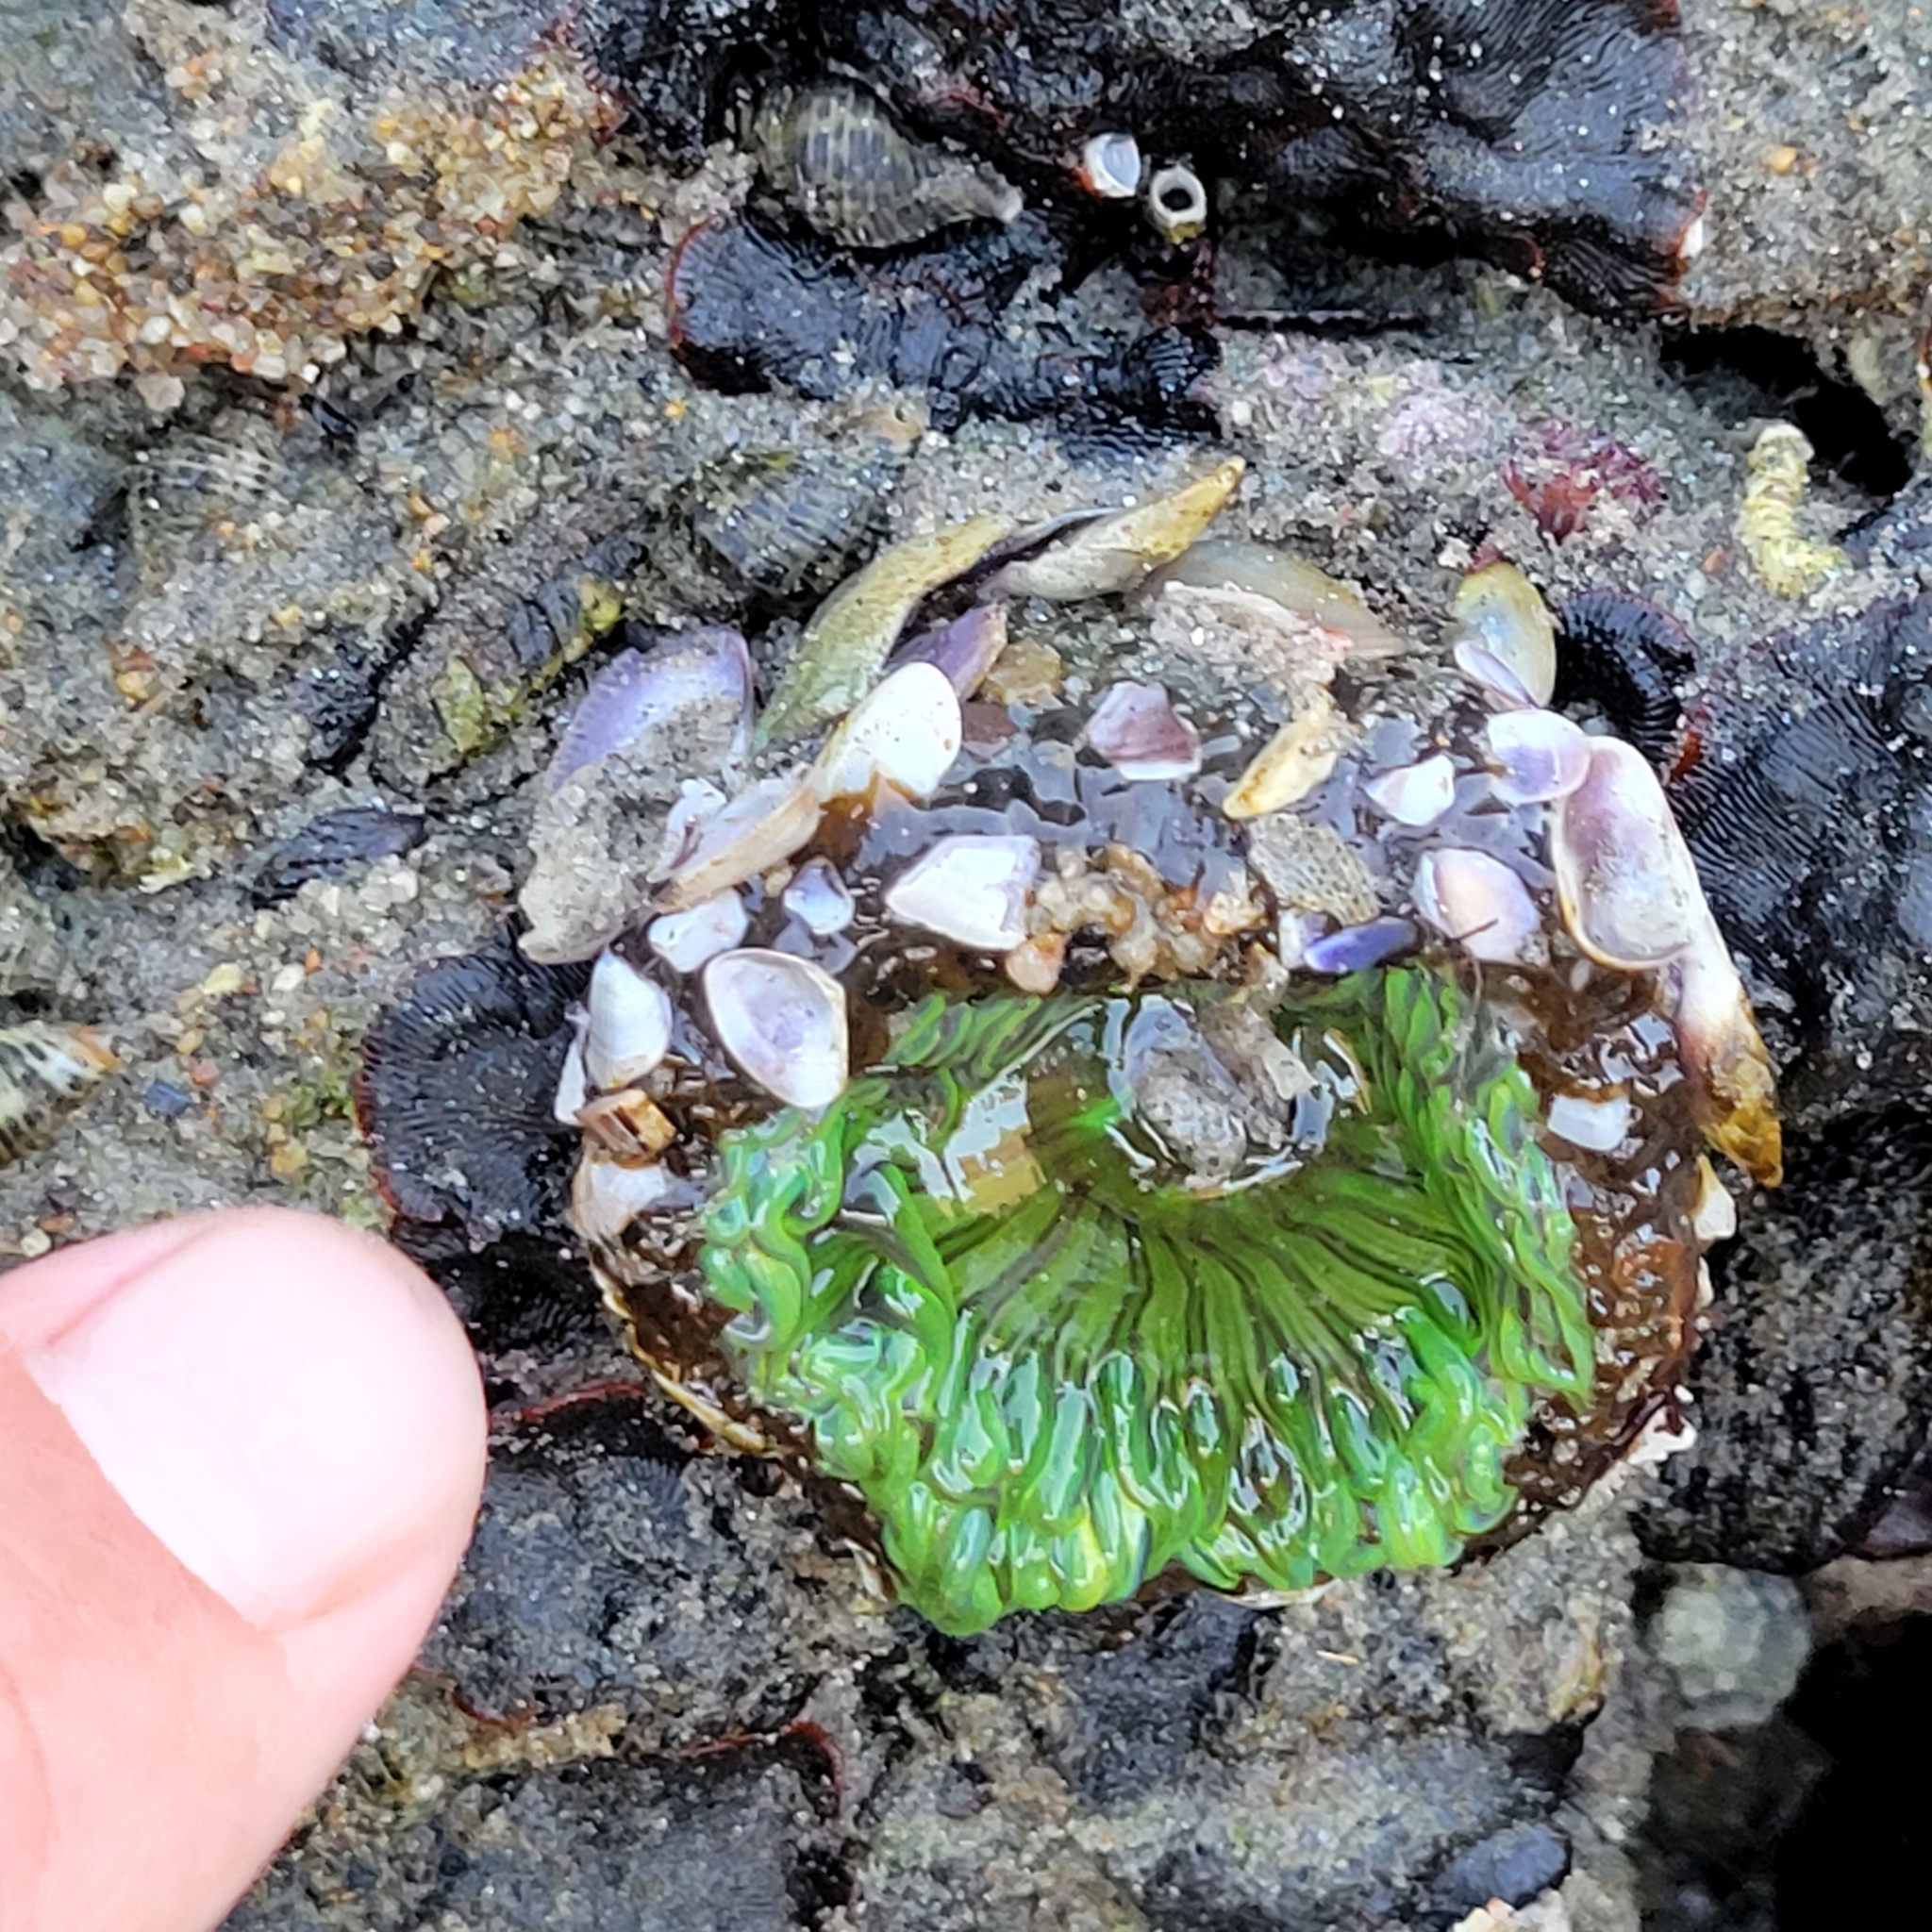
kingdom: Animalia
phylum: Cnidaria
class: Anthozoa
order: Actiniaria
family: Actiniidae
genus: Anthopleura
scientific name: Anthopleura sola
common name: Sun anemone
